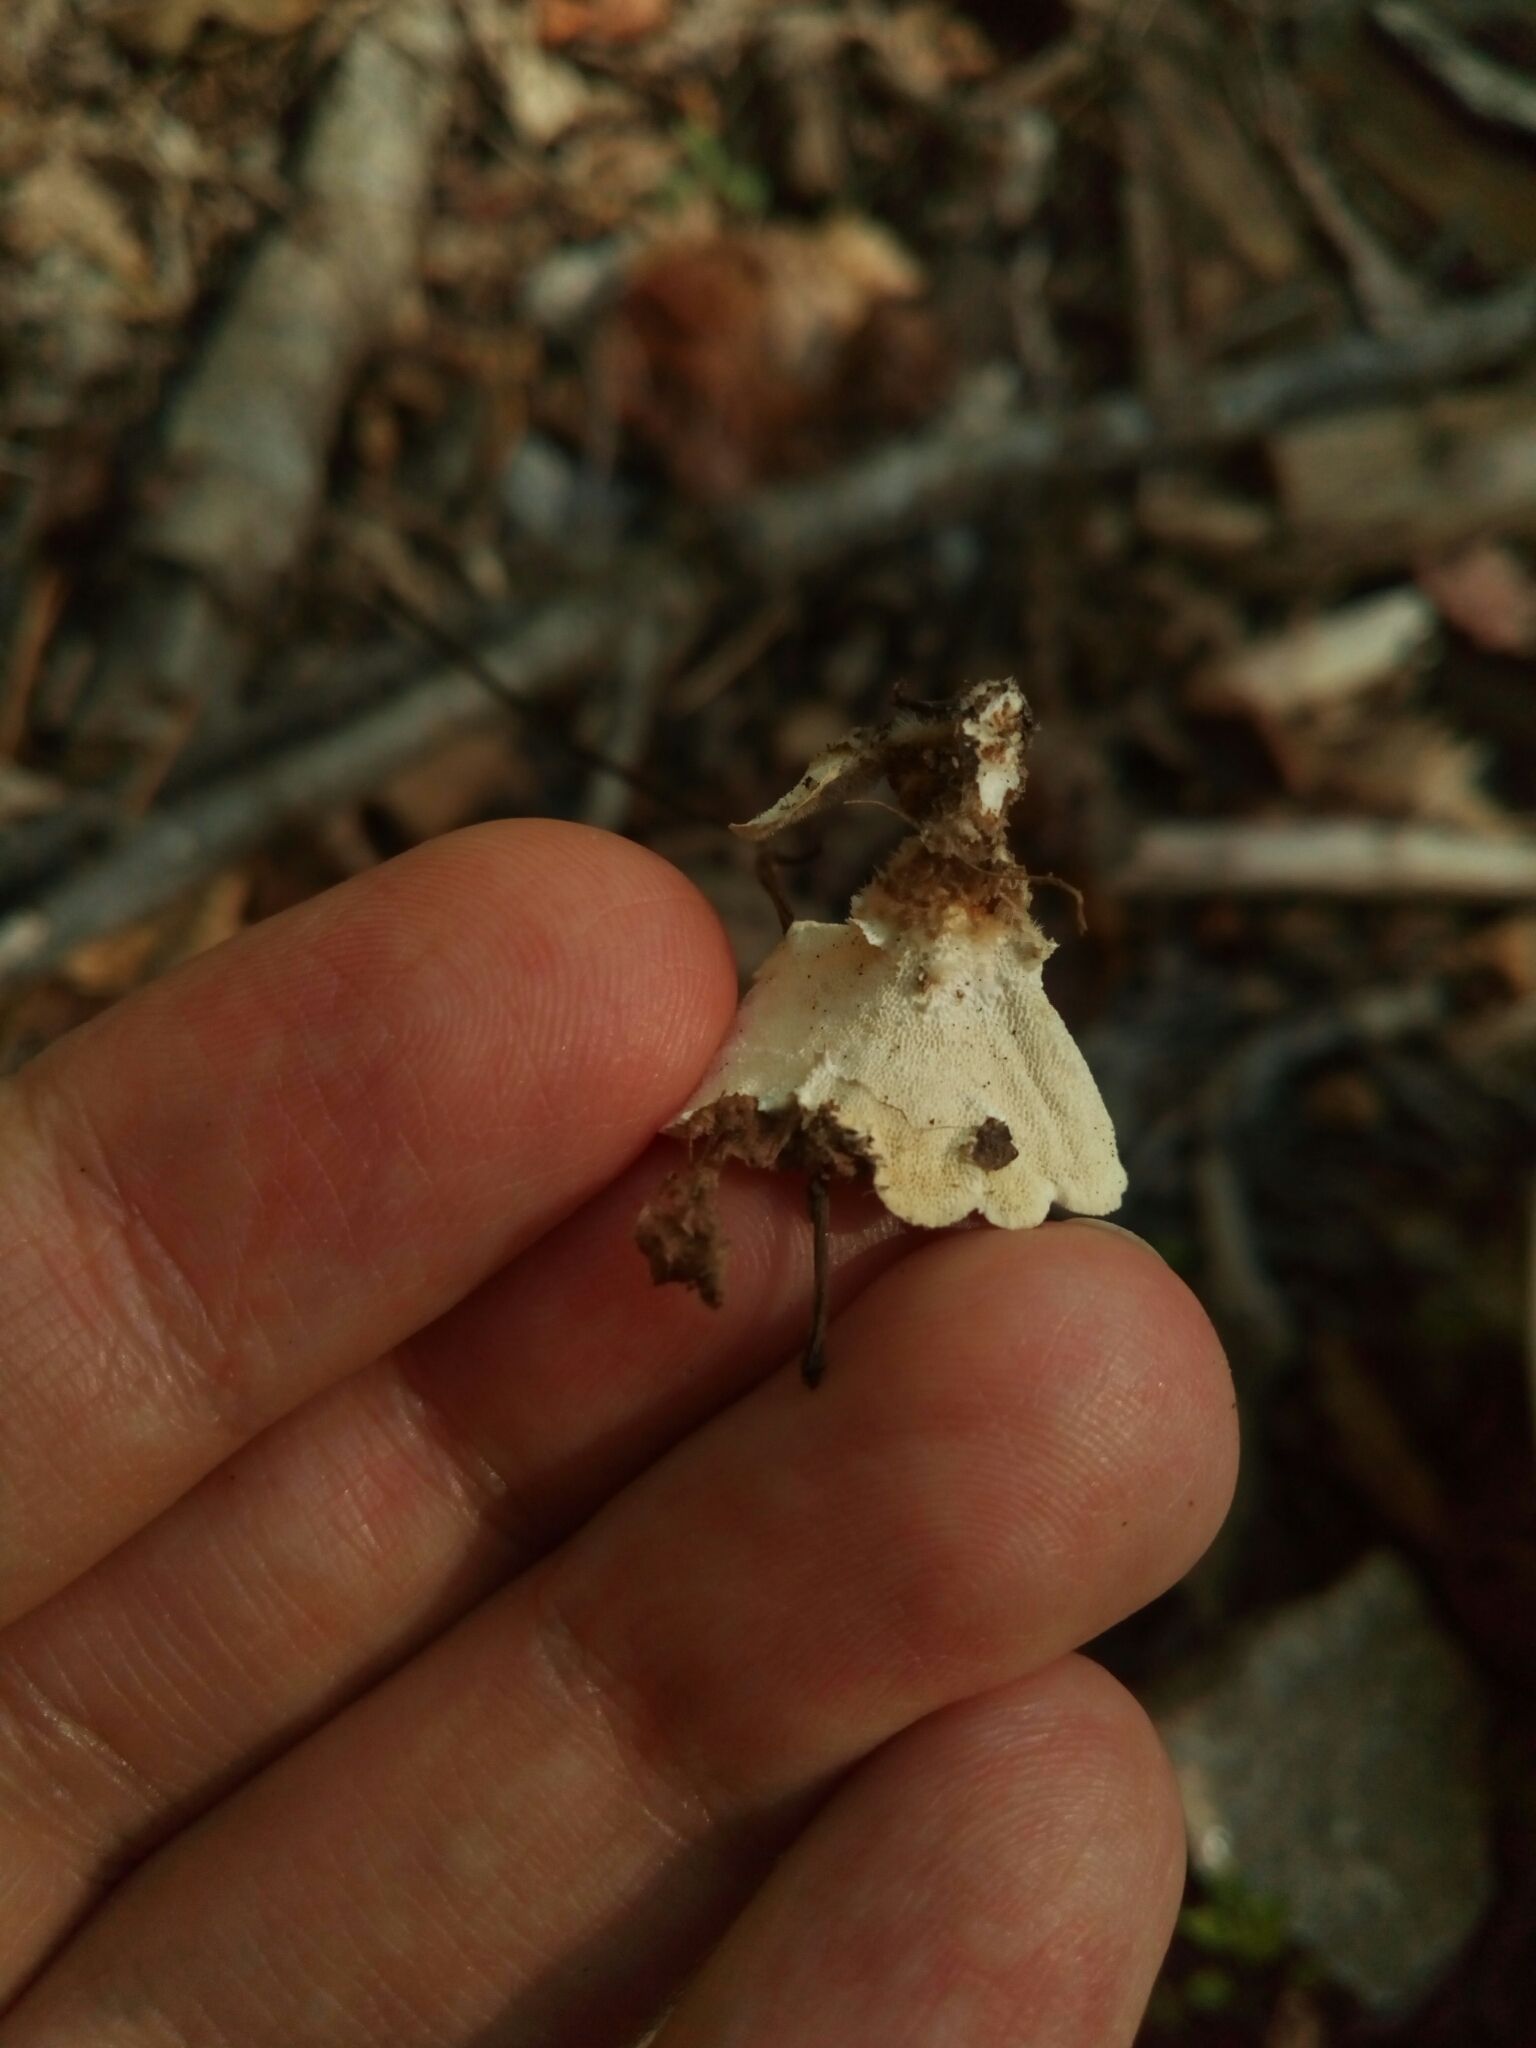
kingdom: Fungi
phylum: Basidiomycota
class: Agaricomycetes
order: Polyporales
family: Polyporaceae
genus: Trametes
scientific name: Trametes versicolor
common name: Turkeytail
